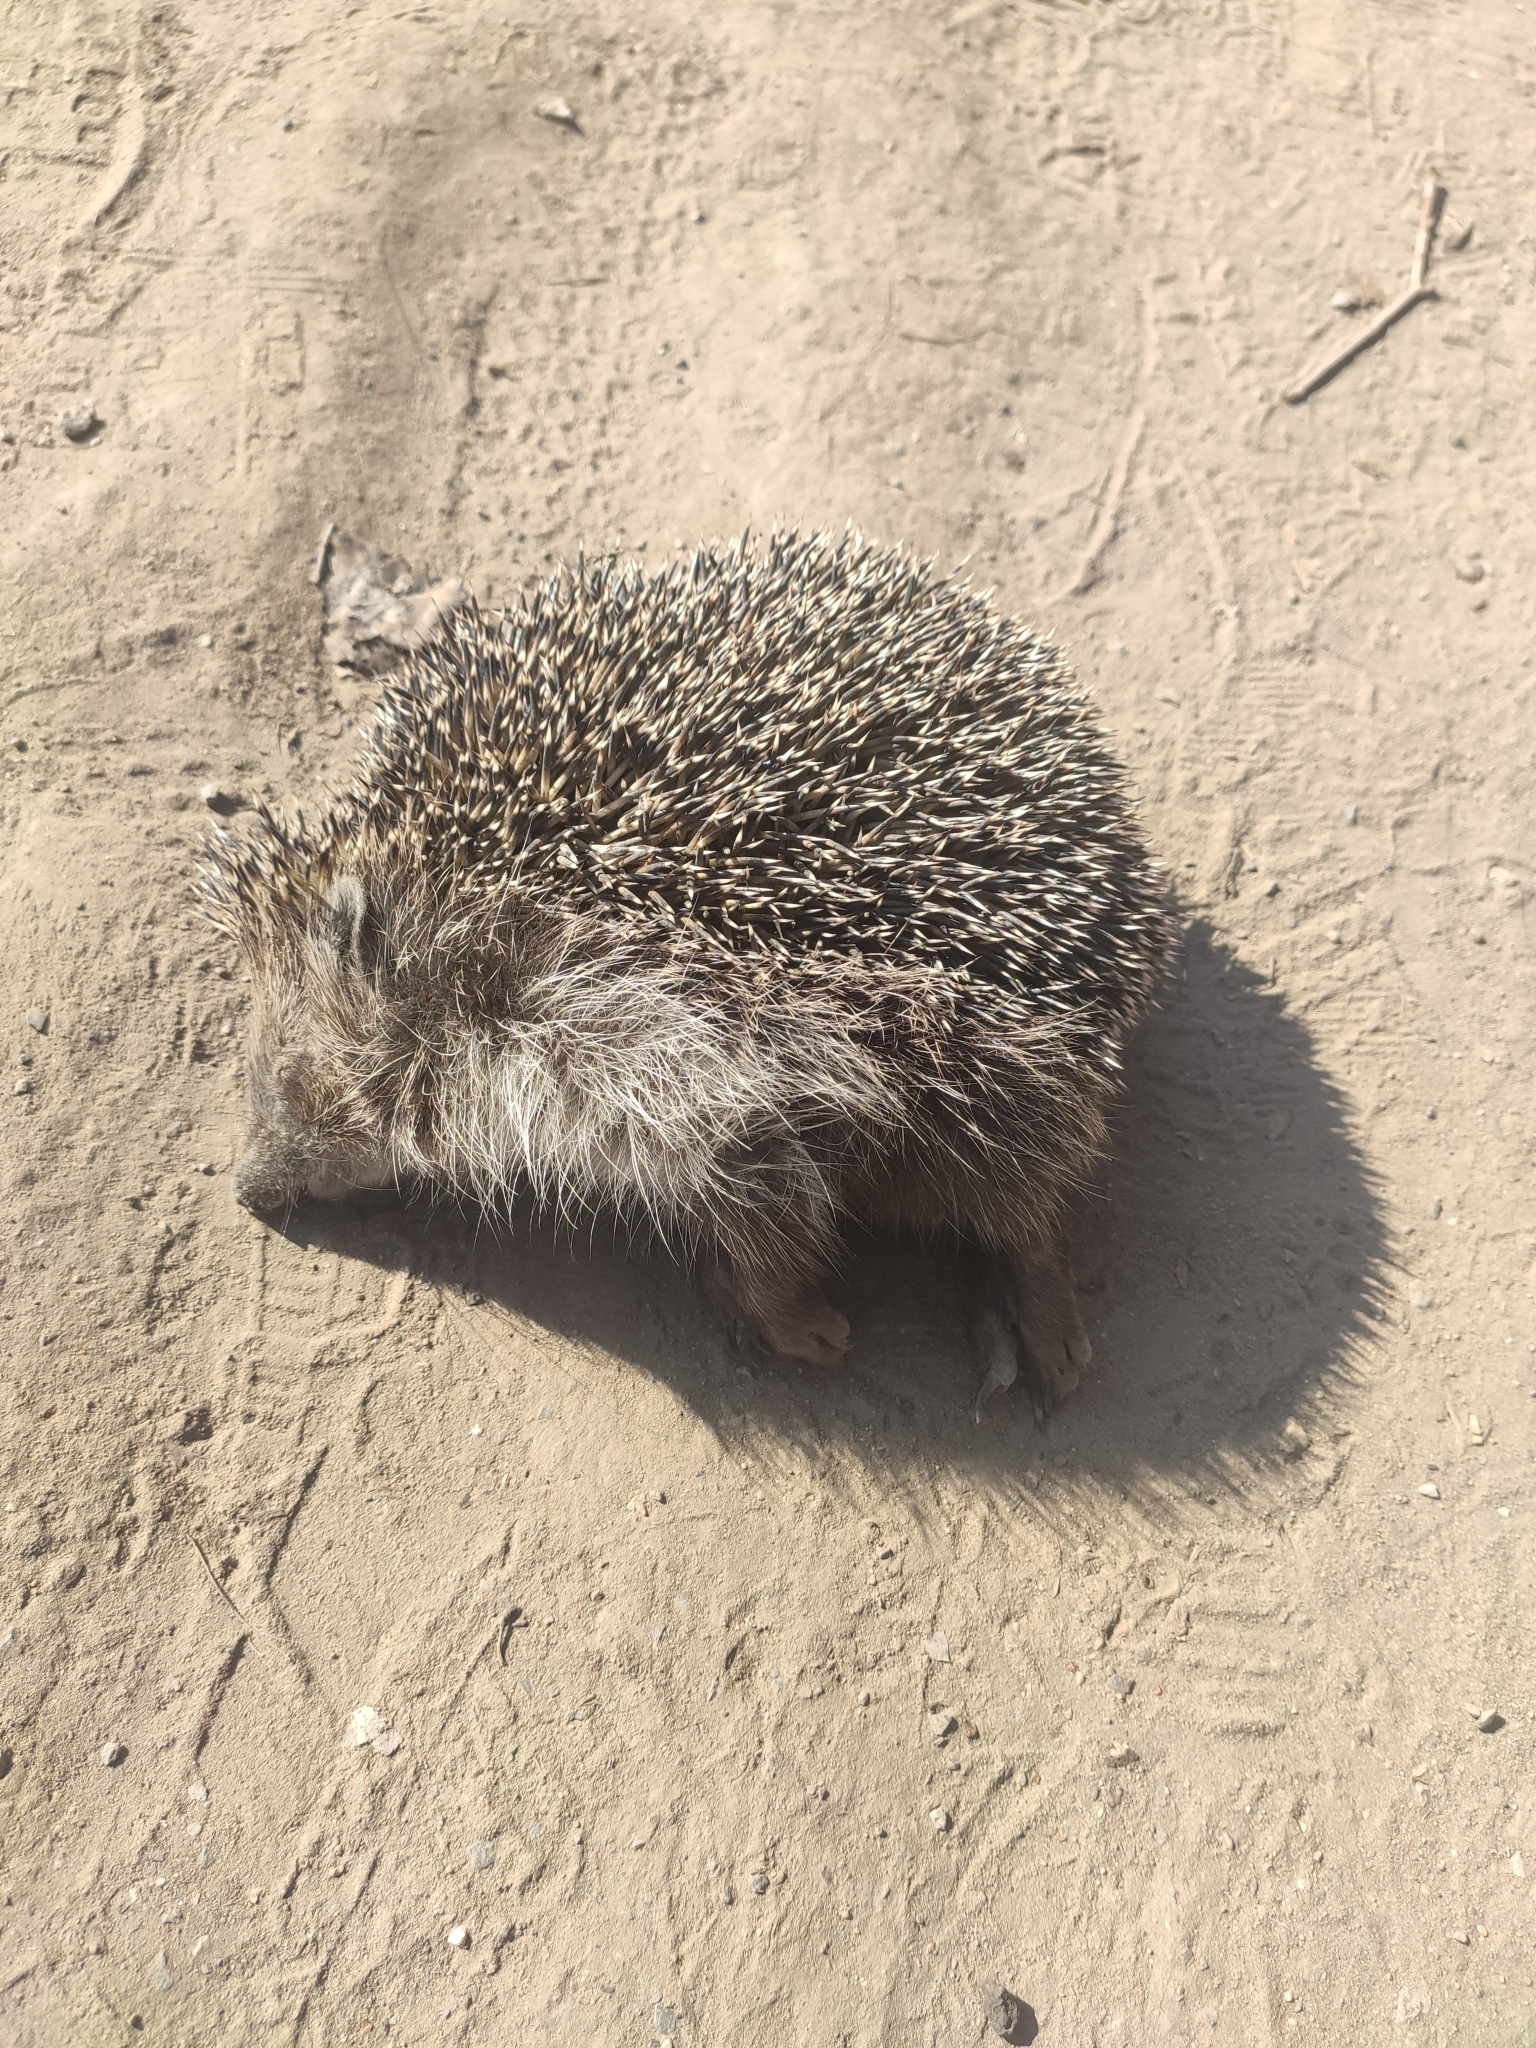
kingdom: Animalia
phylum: Chordata
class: Mammalia
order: Erinaceomorpha
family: Erinaceidae
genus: Erinaceus
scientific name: Erinaceus roumanicus
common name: Northern white-breasted hedgehog
